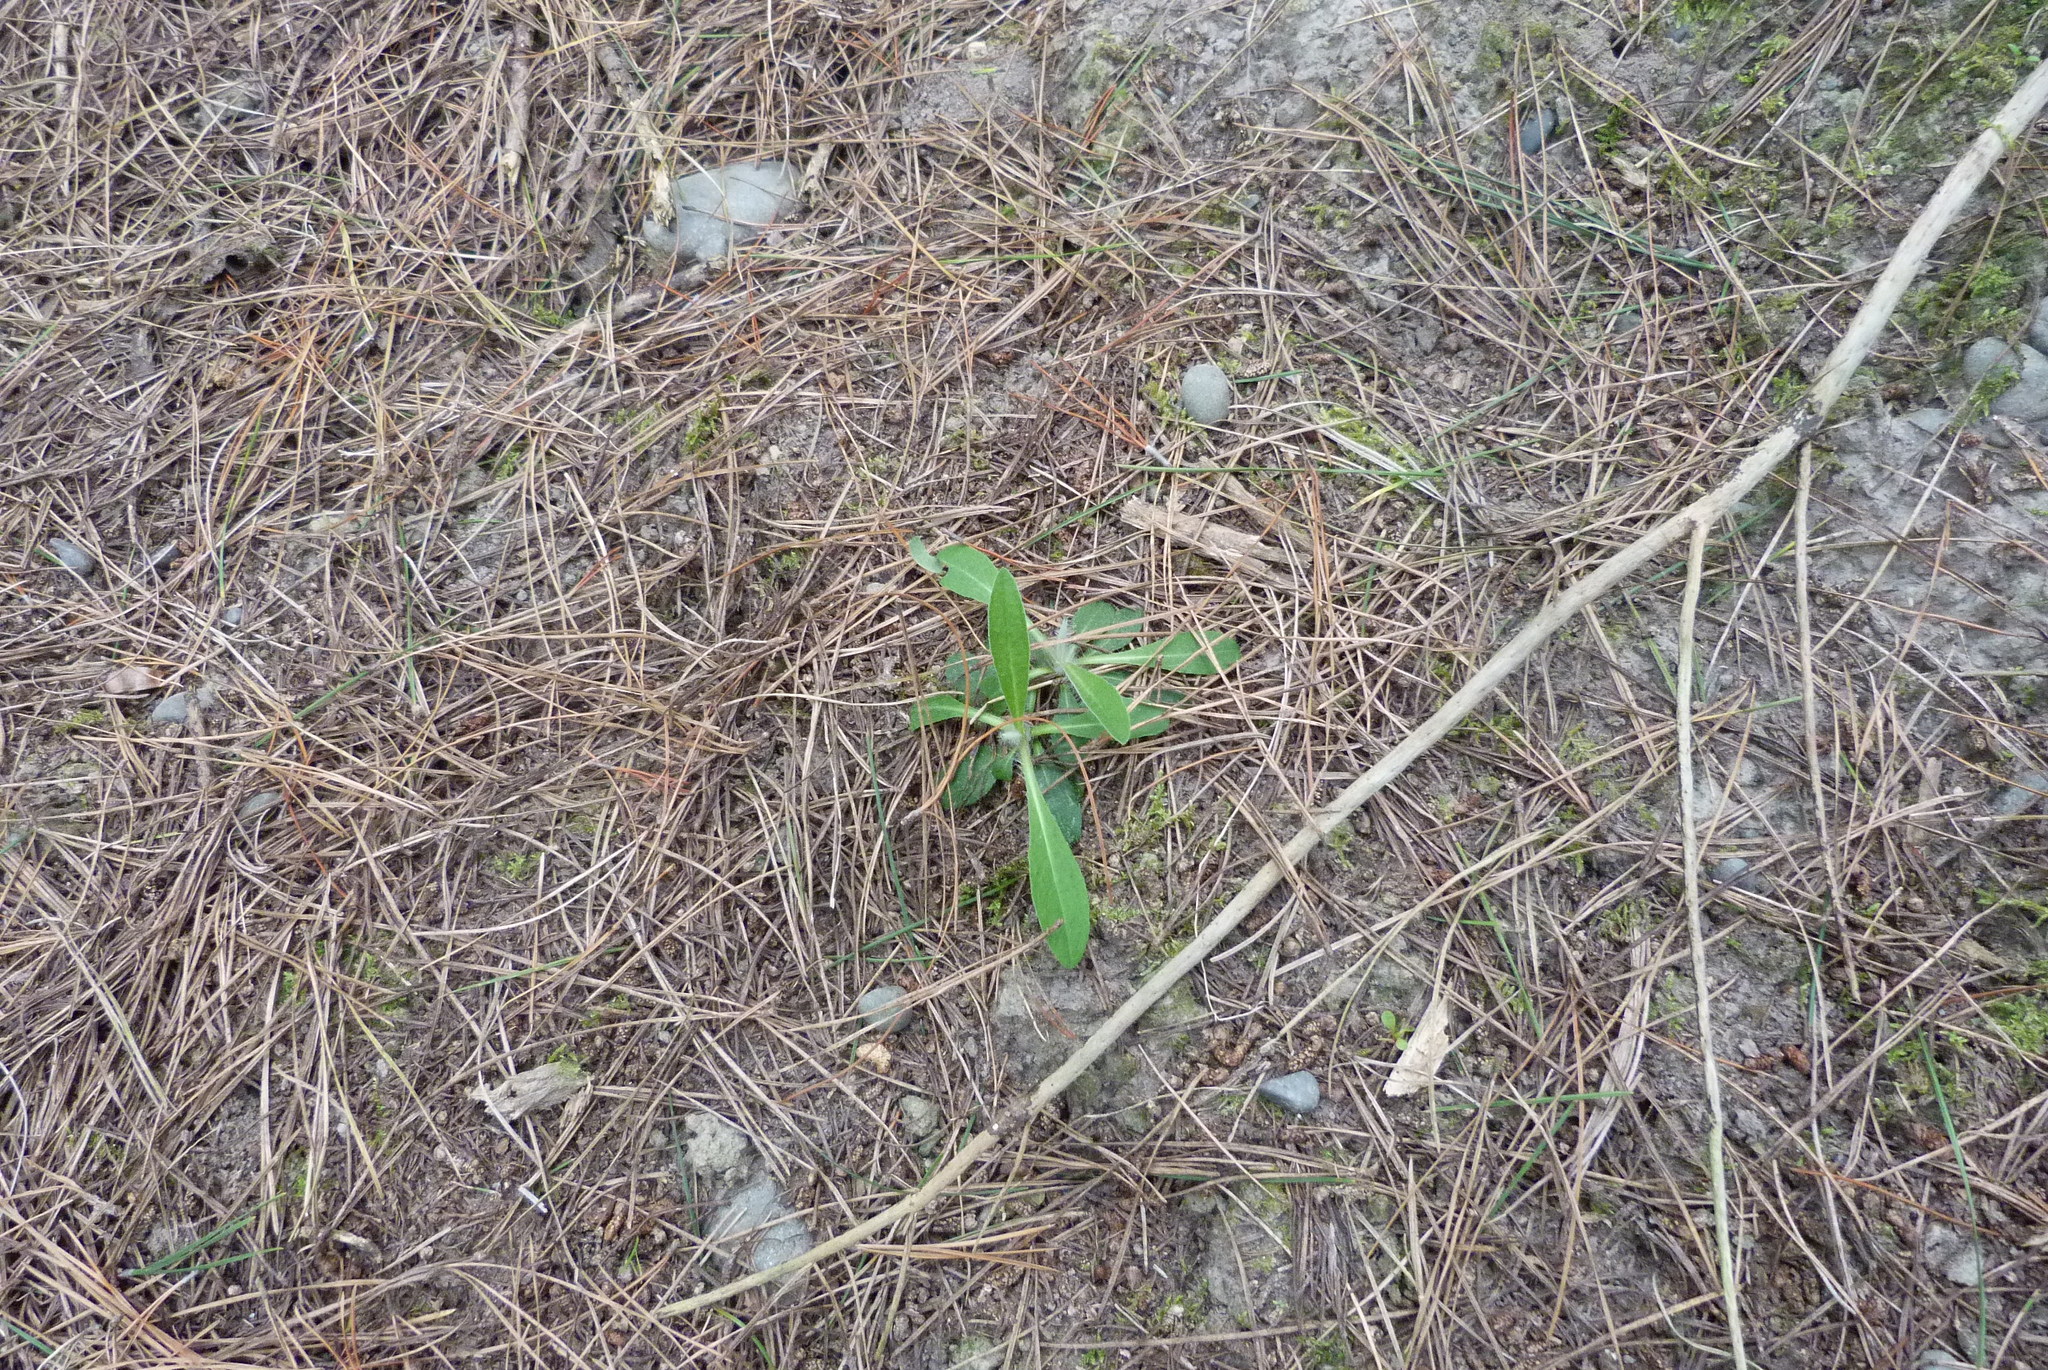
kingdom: Plantae
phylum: Tracheophyta
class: Magnoliopsida
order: Asterales
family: Asteraceae
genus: Pilosella
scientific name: Pilosella officinarum
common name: Mouse-ear hawkweed
